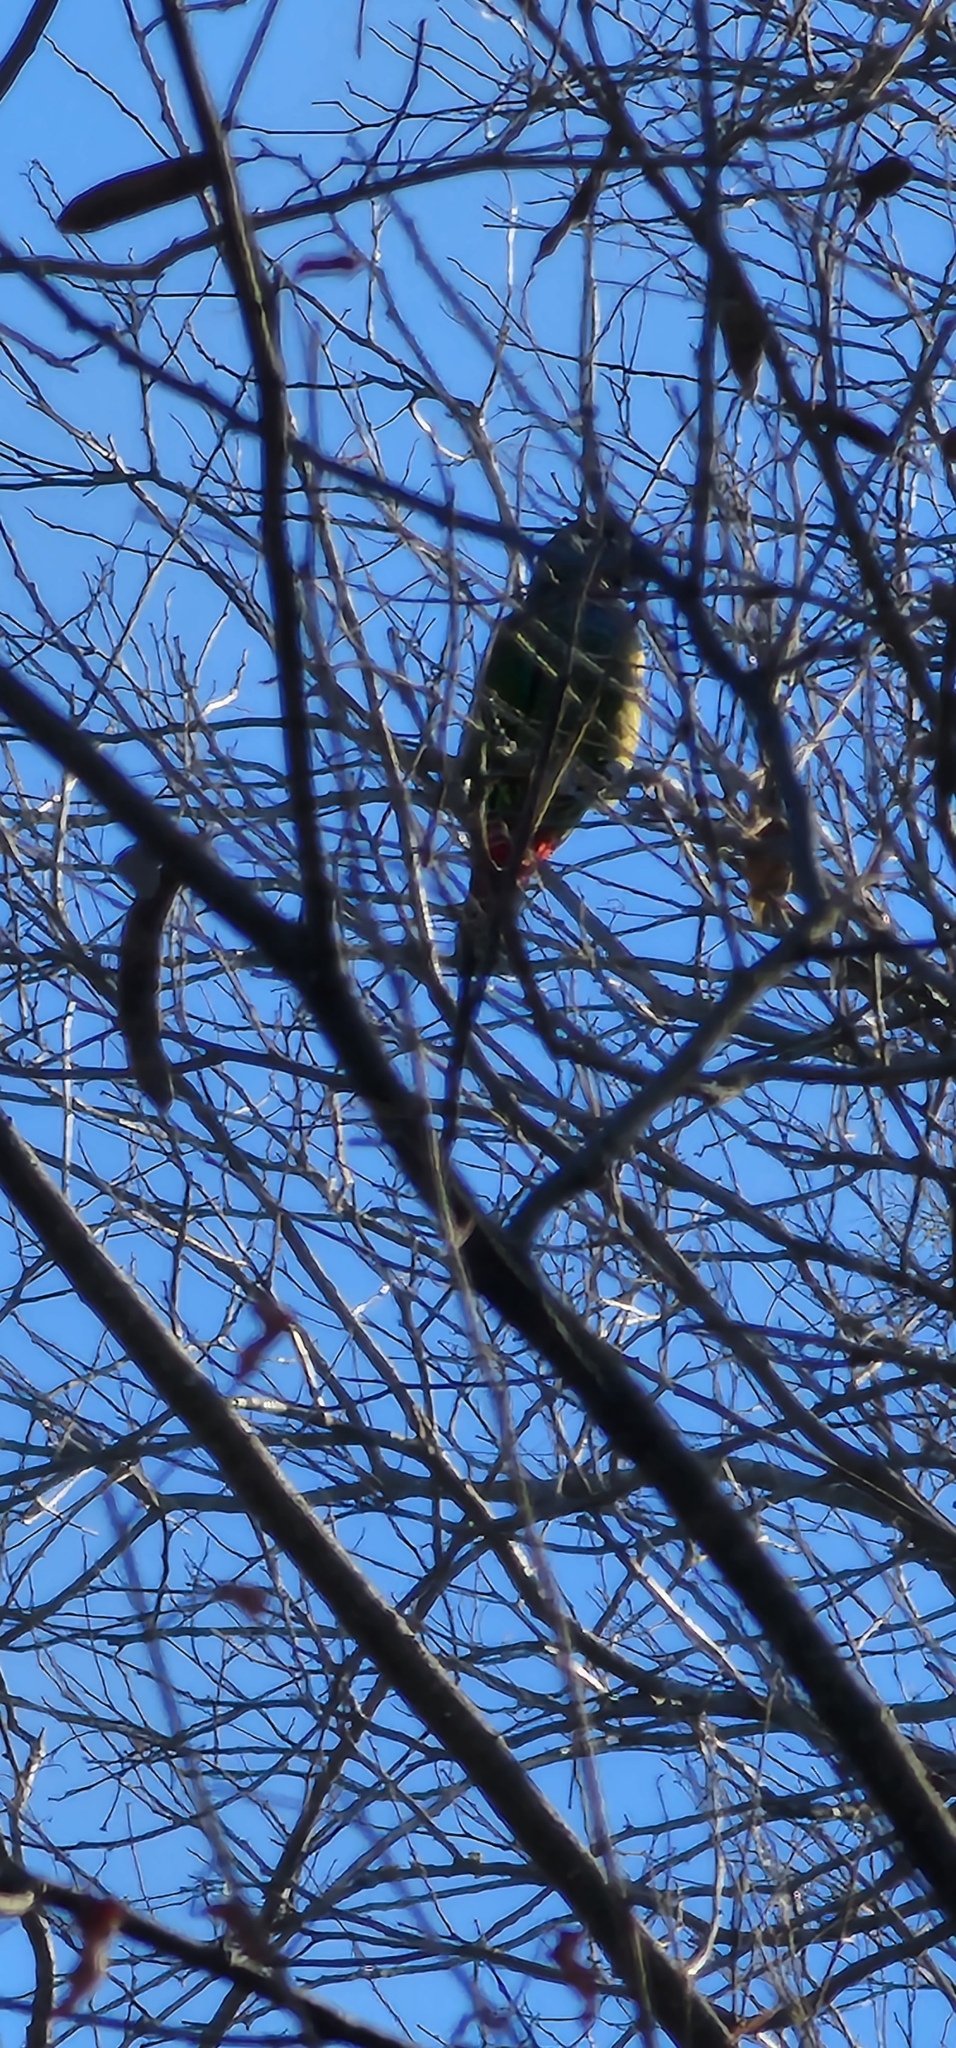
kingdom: Animalia
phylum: Chordata
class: Aves
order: Psittaciformes
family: Psittacidae
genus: Pionus
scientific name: Pionus maximiliani
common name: Scaly-headed parrot
